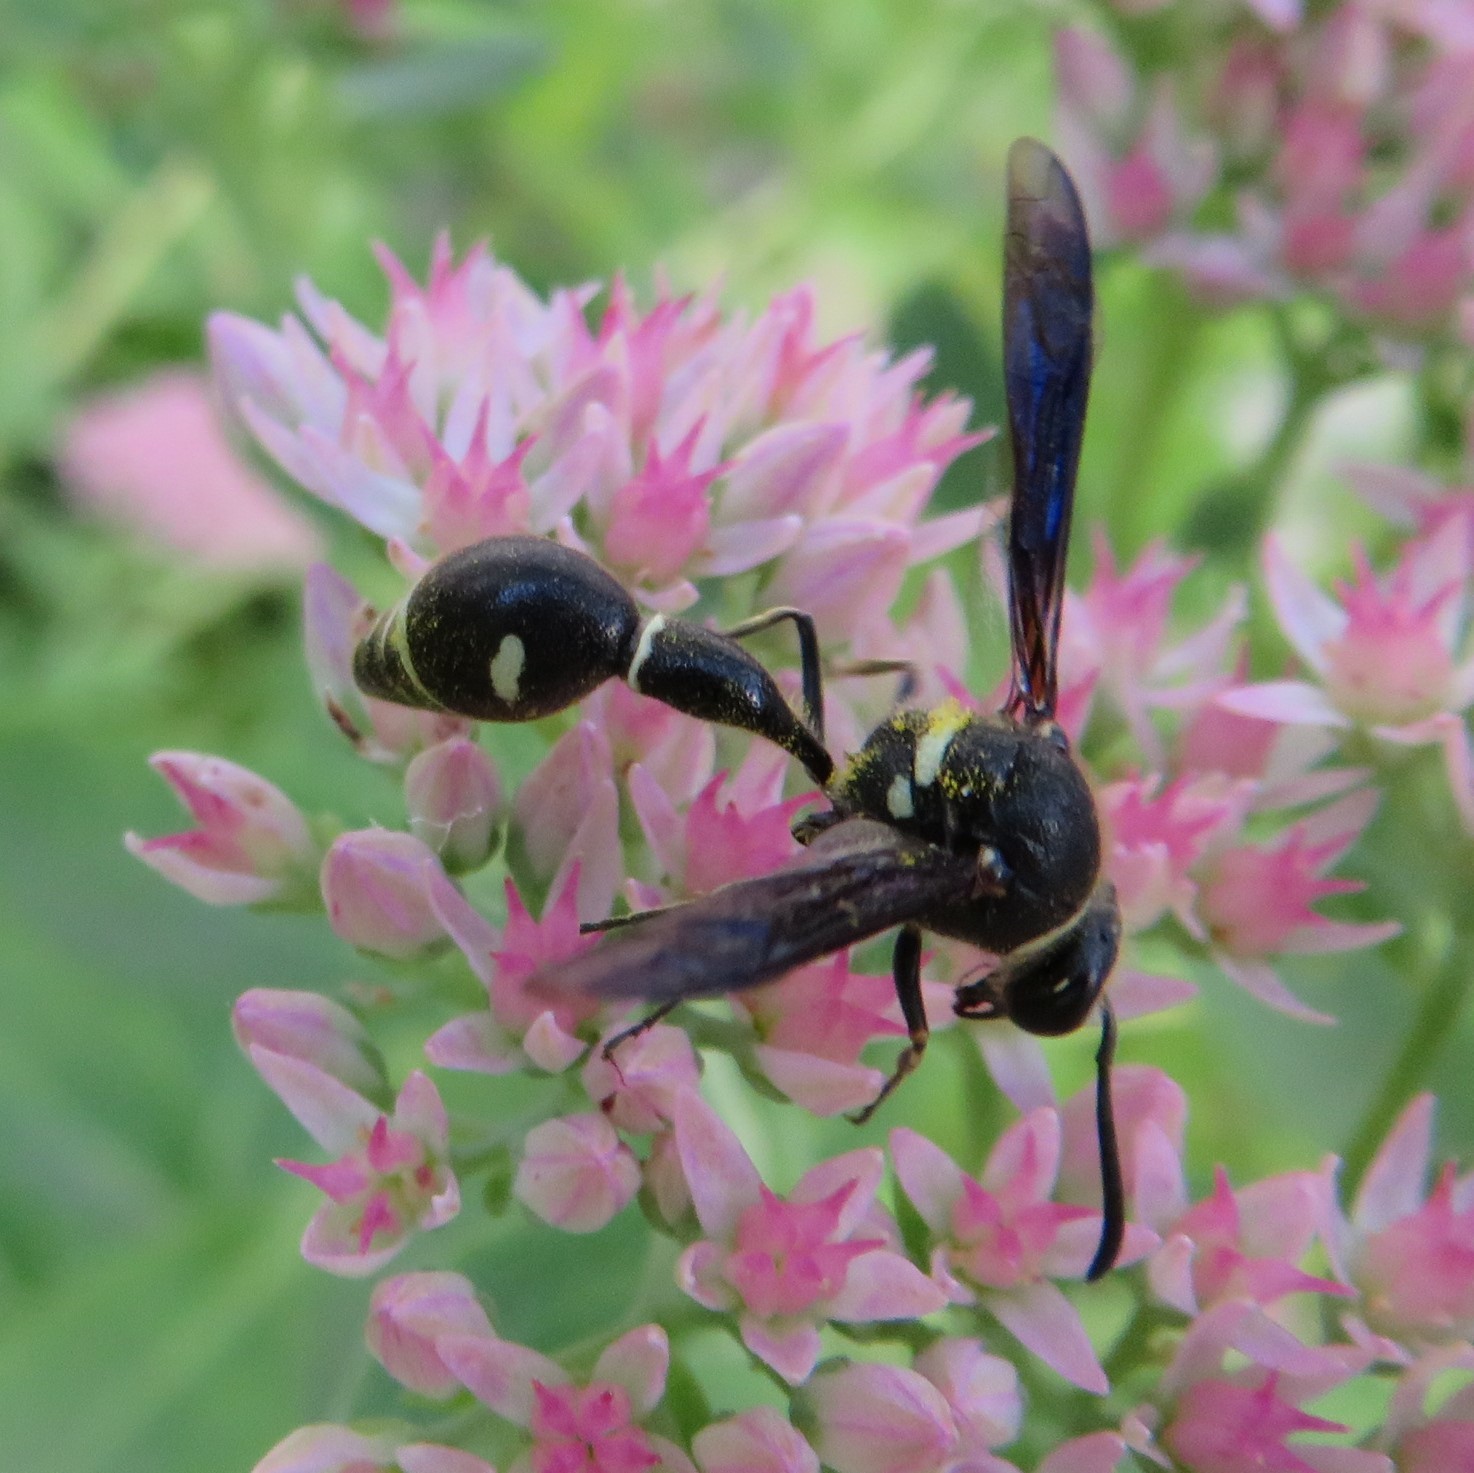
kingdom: Animalia
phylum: Arthropoda
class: Insecta
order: Hymenoptera
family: Vespidae
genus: Eumenes
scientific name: Eumenes fraternus
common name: Fraternal potter wasp
